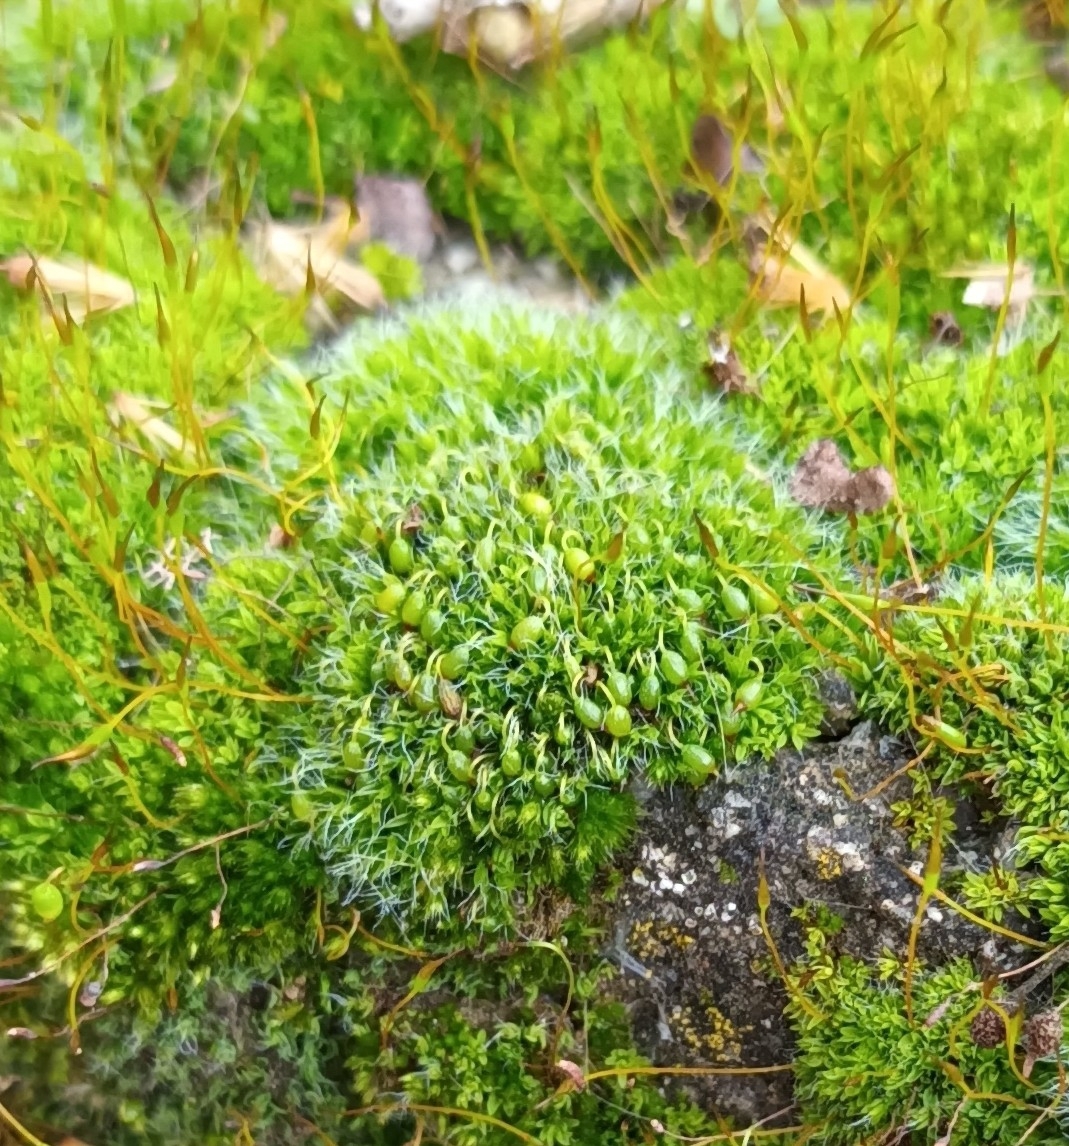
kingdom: Plantae
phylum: Bryophyta
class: Bryopsida
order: Grimmiales
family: Grimmiaceae
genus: Grimmia
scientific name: Grimmia pulvinata
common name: Grey-cushioned grimmia
